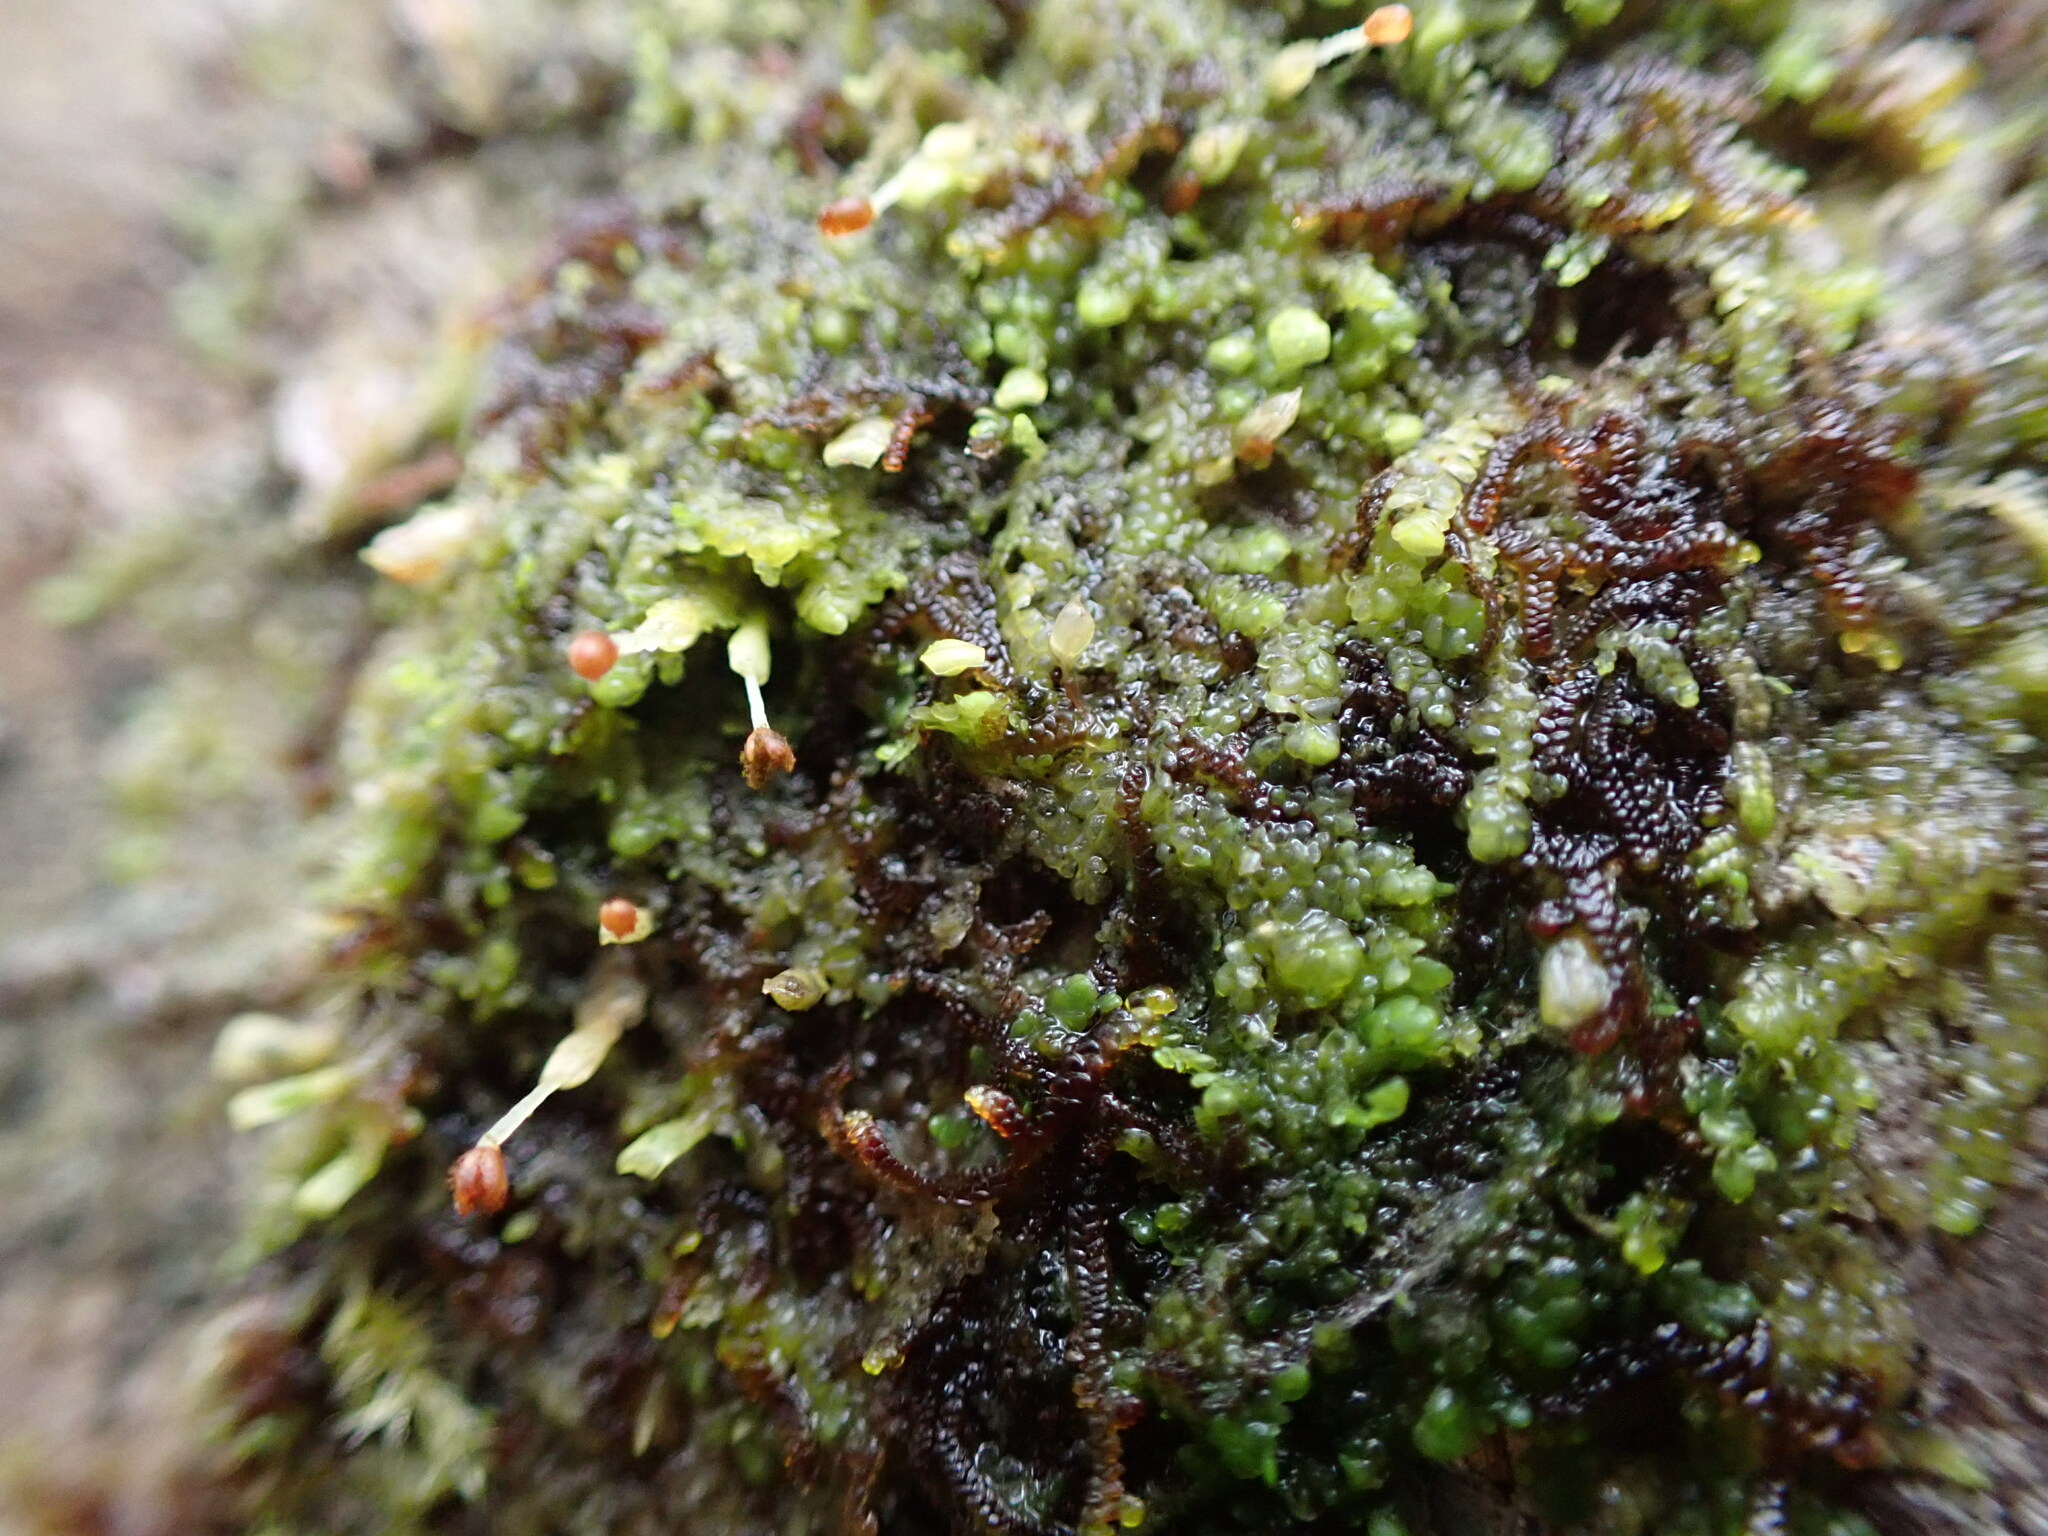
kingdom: Plantae
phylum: Marchantiophyta
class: Jungermanniopsida
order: Porellales
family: Radulaceae
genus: Radula
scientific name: Radula bolanderi
